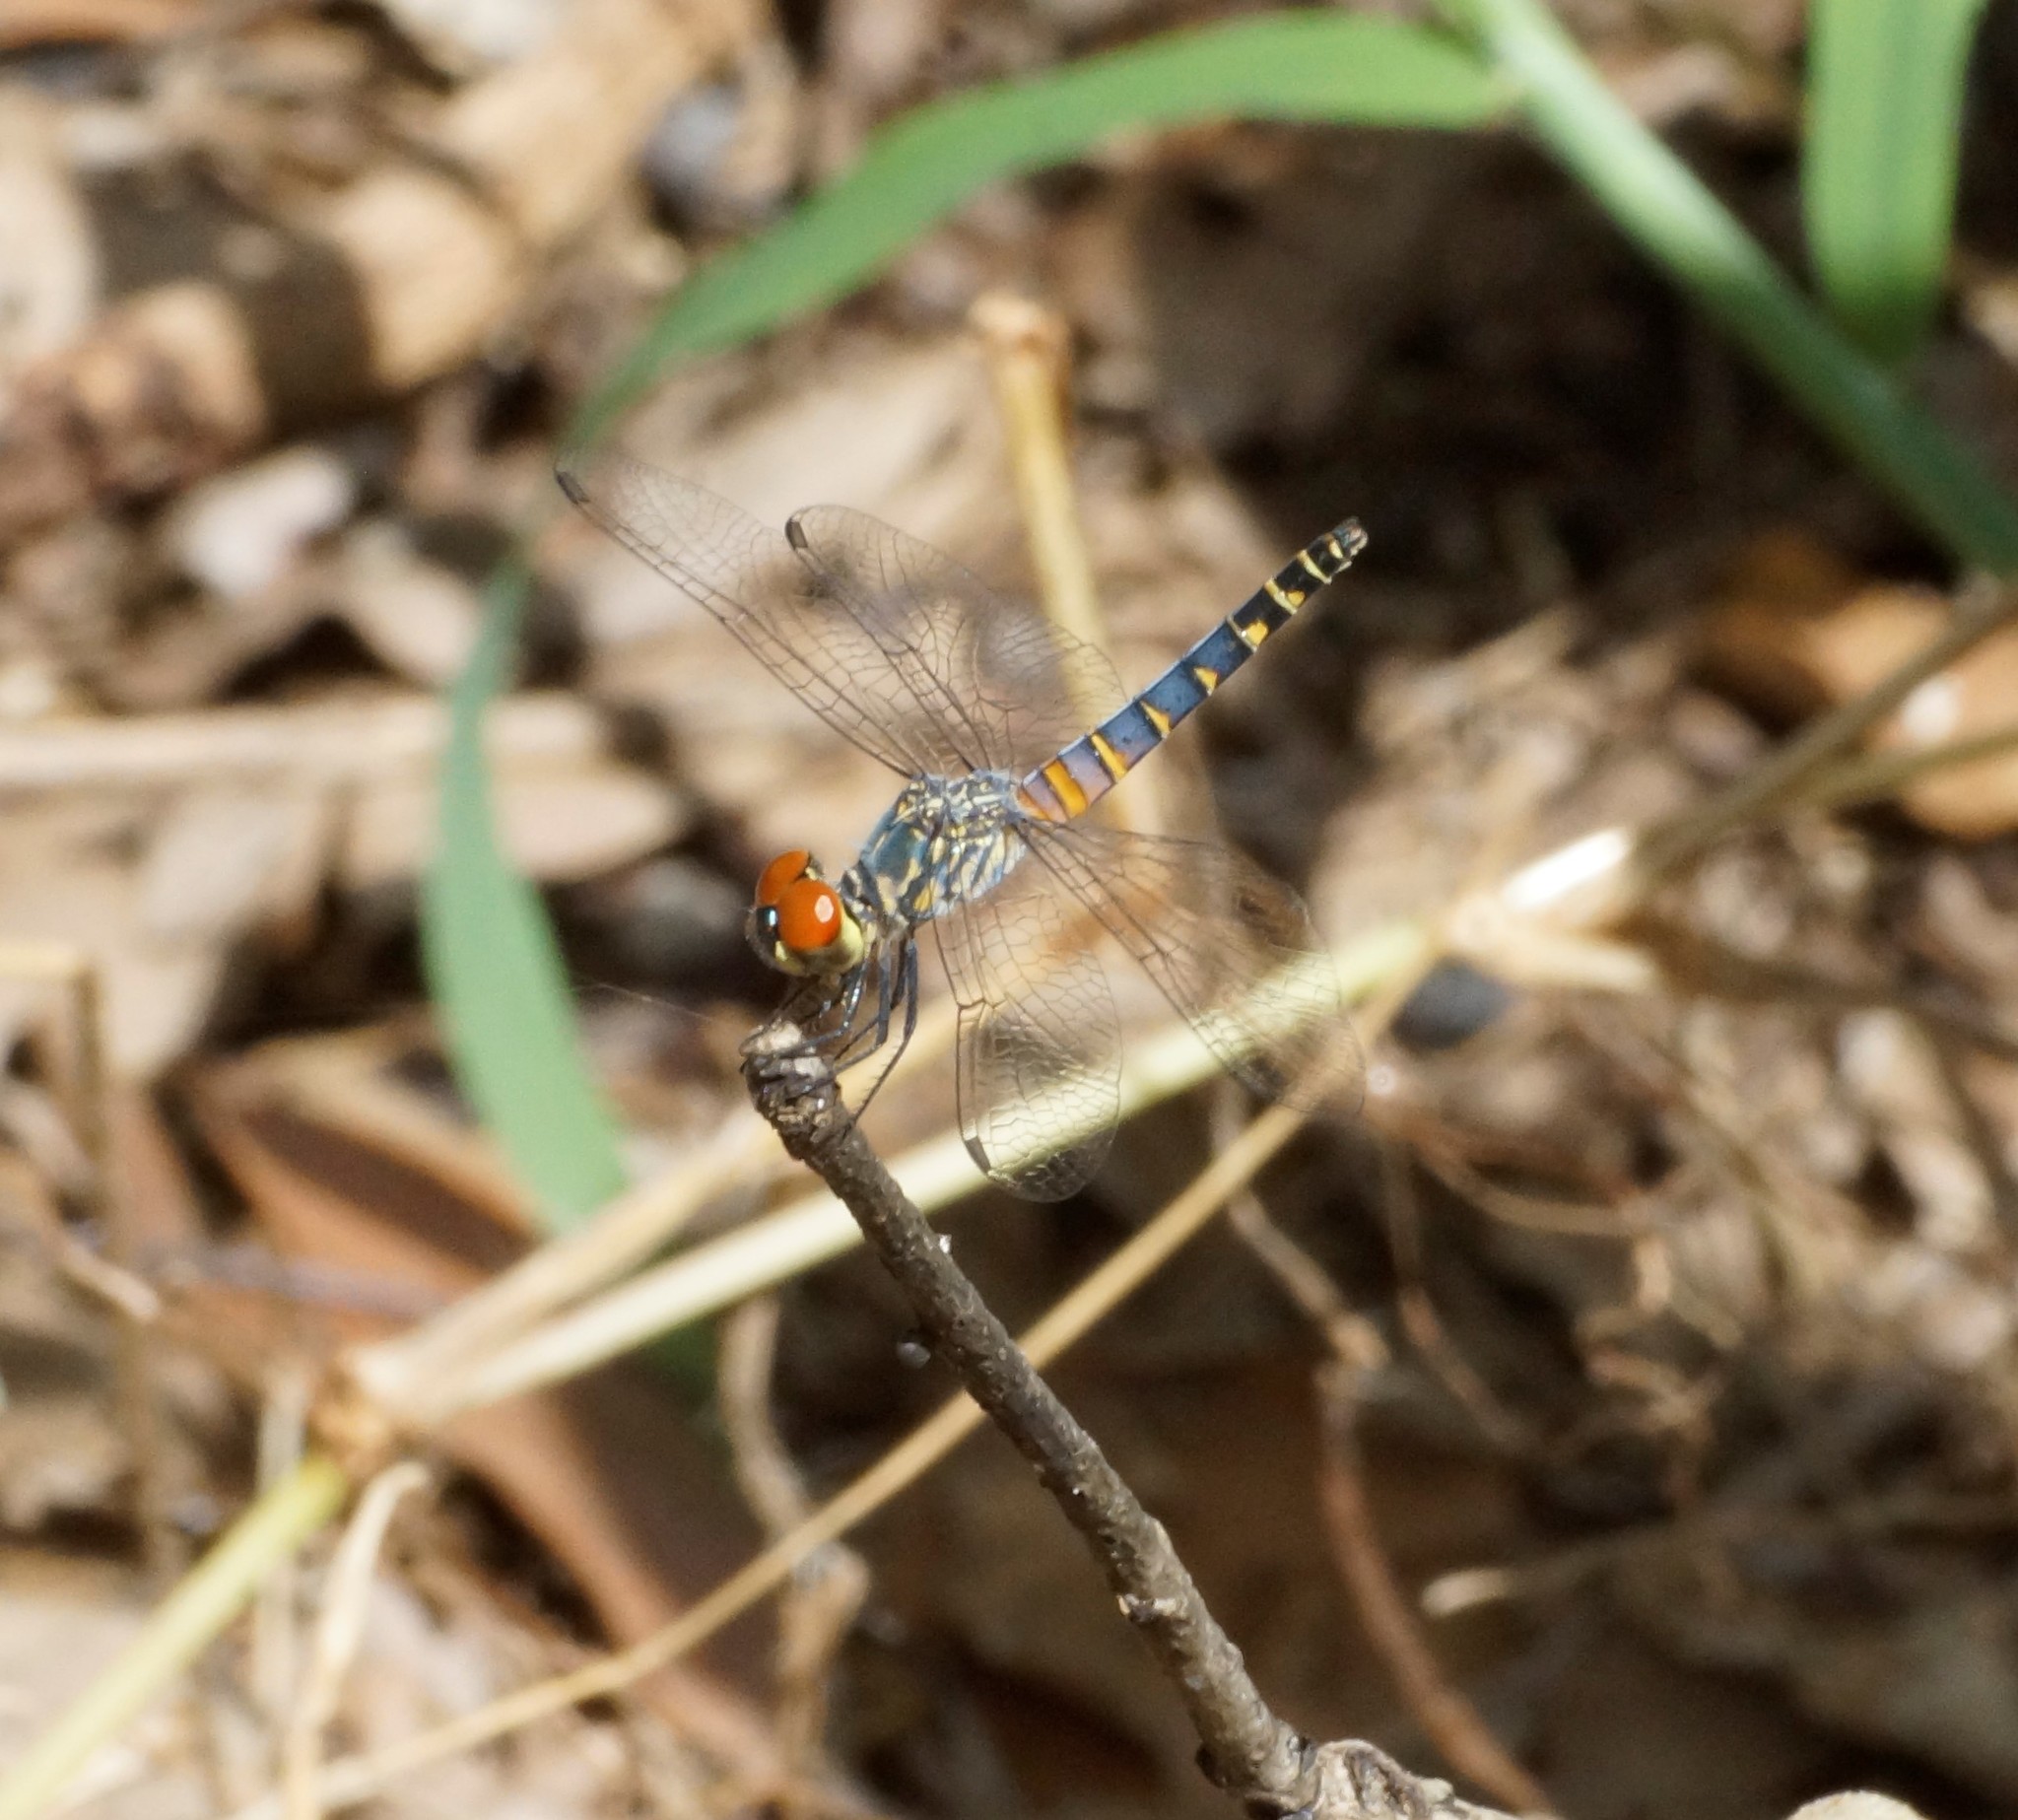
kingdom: Animalia
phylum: Arthropoda
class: Insecta
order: Odonata
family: Libellulidae
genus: Brachydiplax
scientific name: Brachydiplax denticauda
